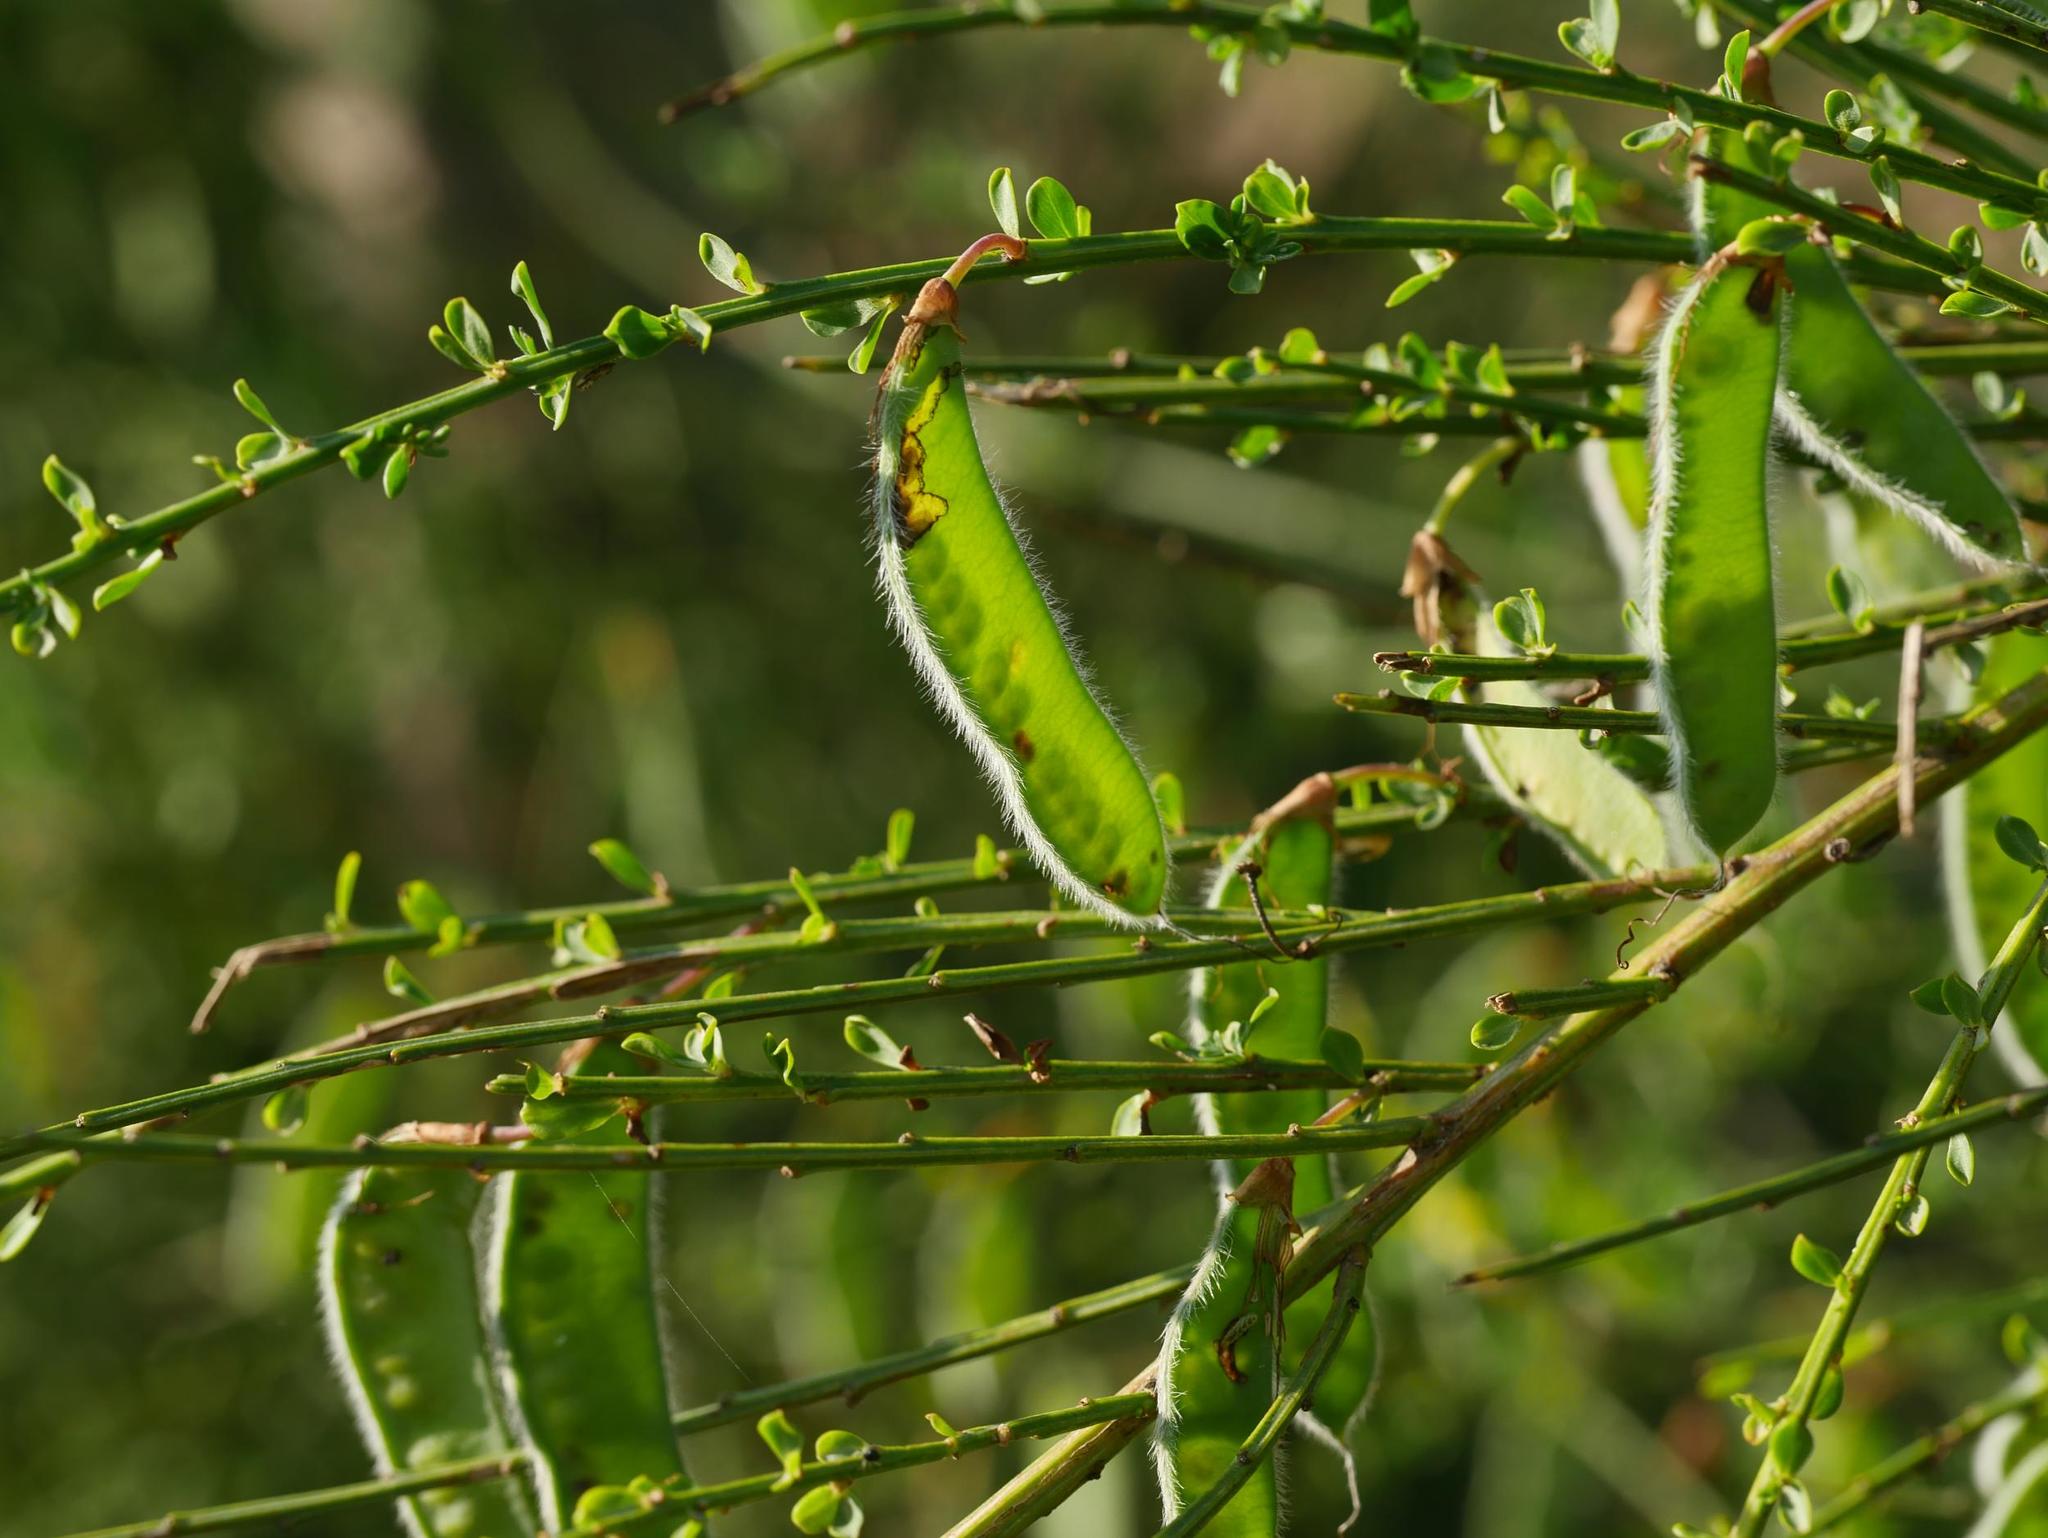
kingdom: Plantae
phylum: Tracheophyta
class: Magnoliopsida
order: Fabales
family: Fabaceae
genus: Cytisus
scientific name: Cytisus scoparius
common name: Scotch broom
